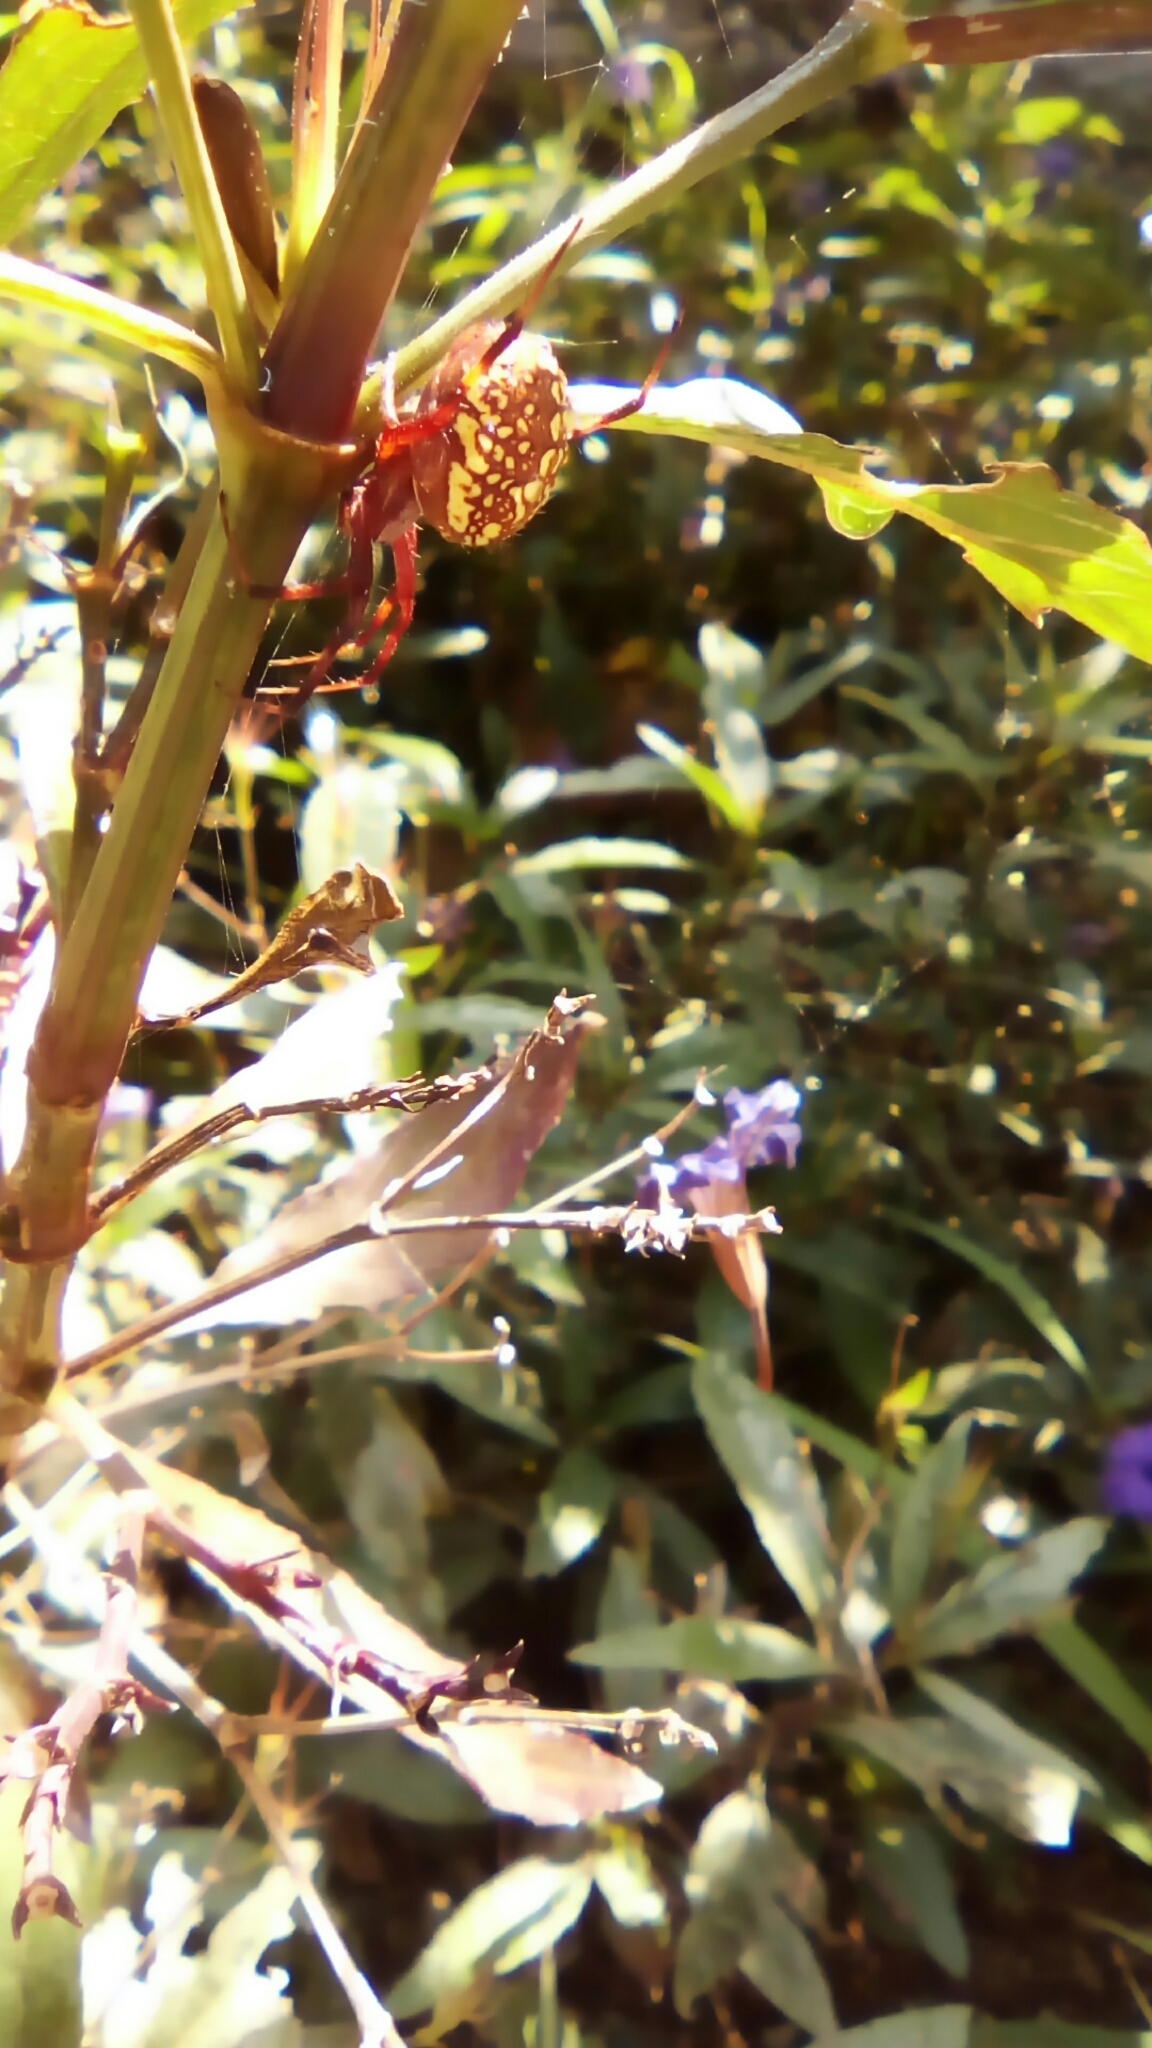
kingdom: Animalia
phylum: Arthropoda
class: Arachnida
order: Araneae
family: Araneidae
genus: Neoscona
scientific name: Neoscona oaxacensis
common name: Orb weavers
